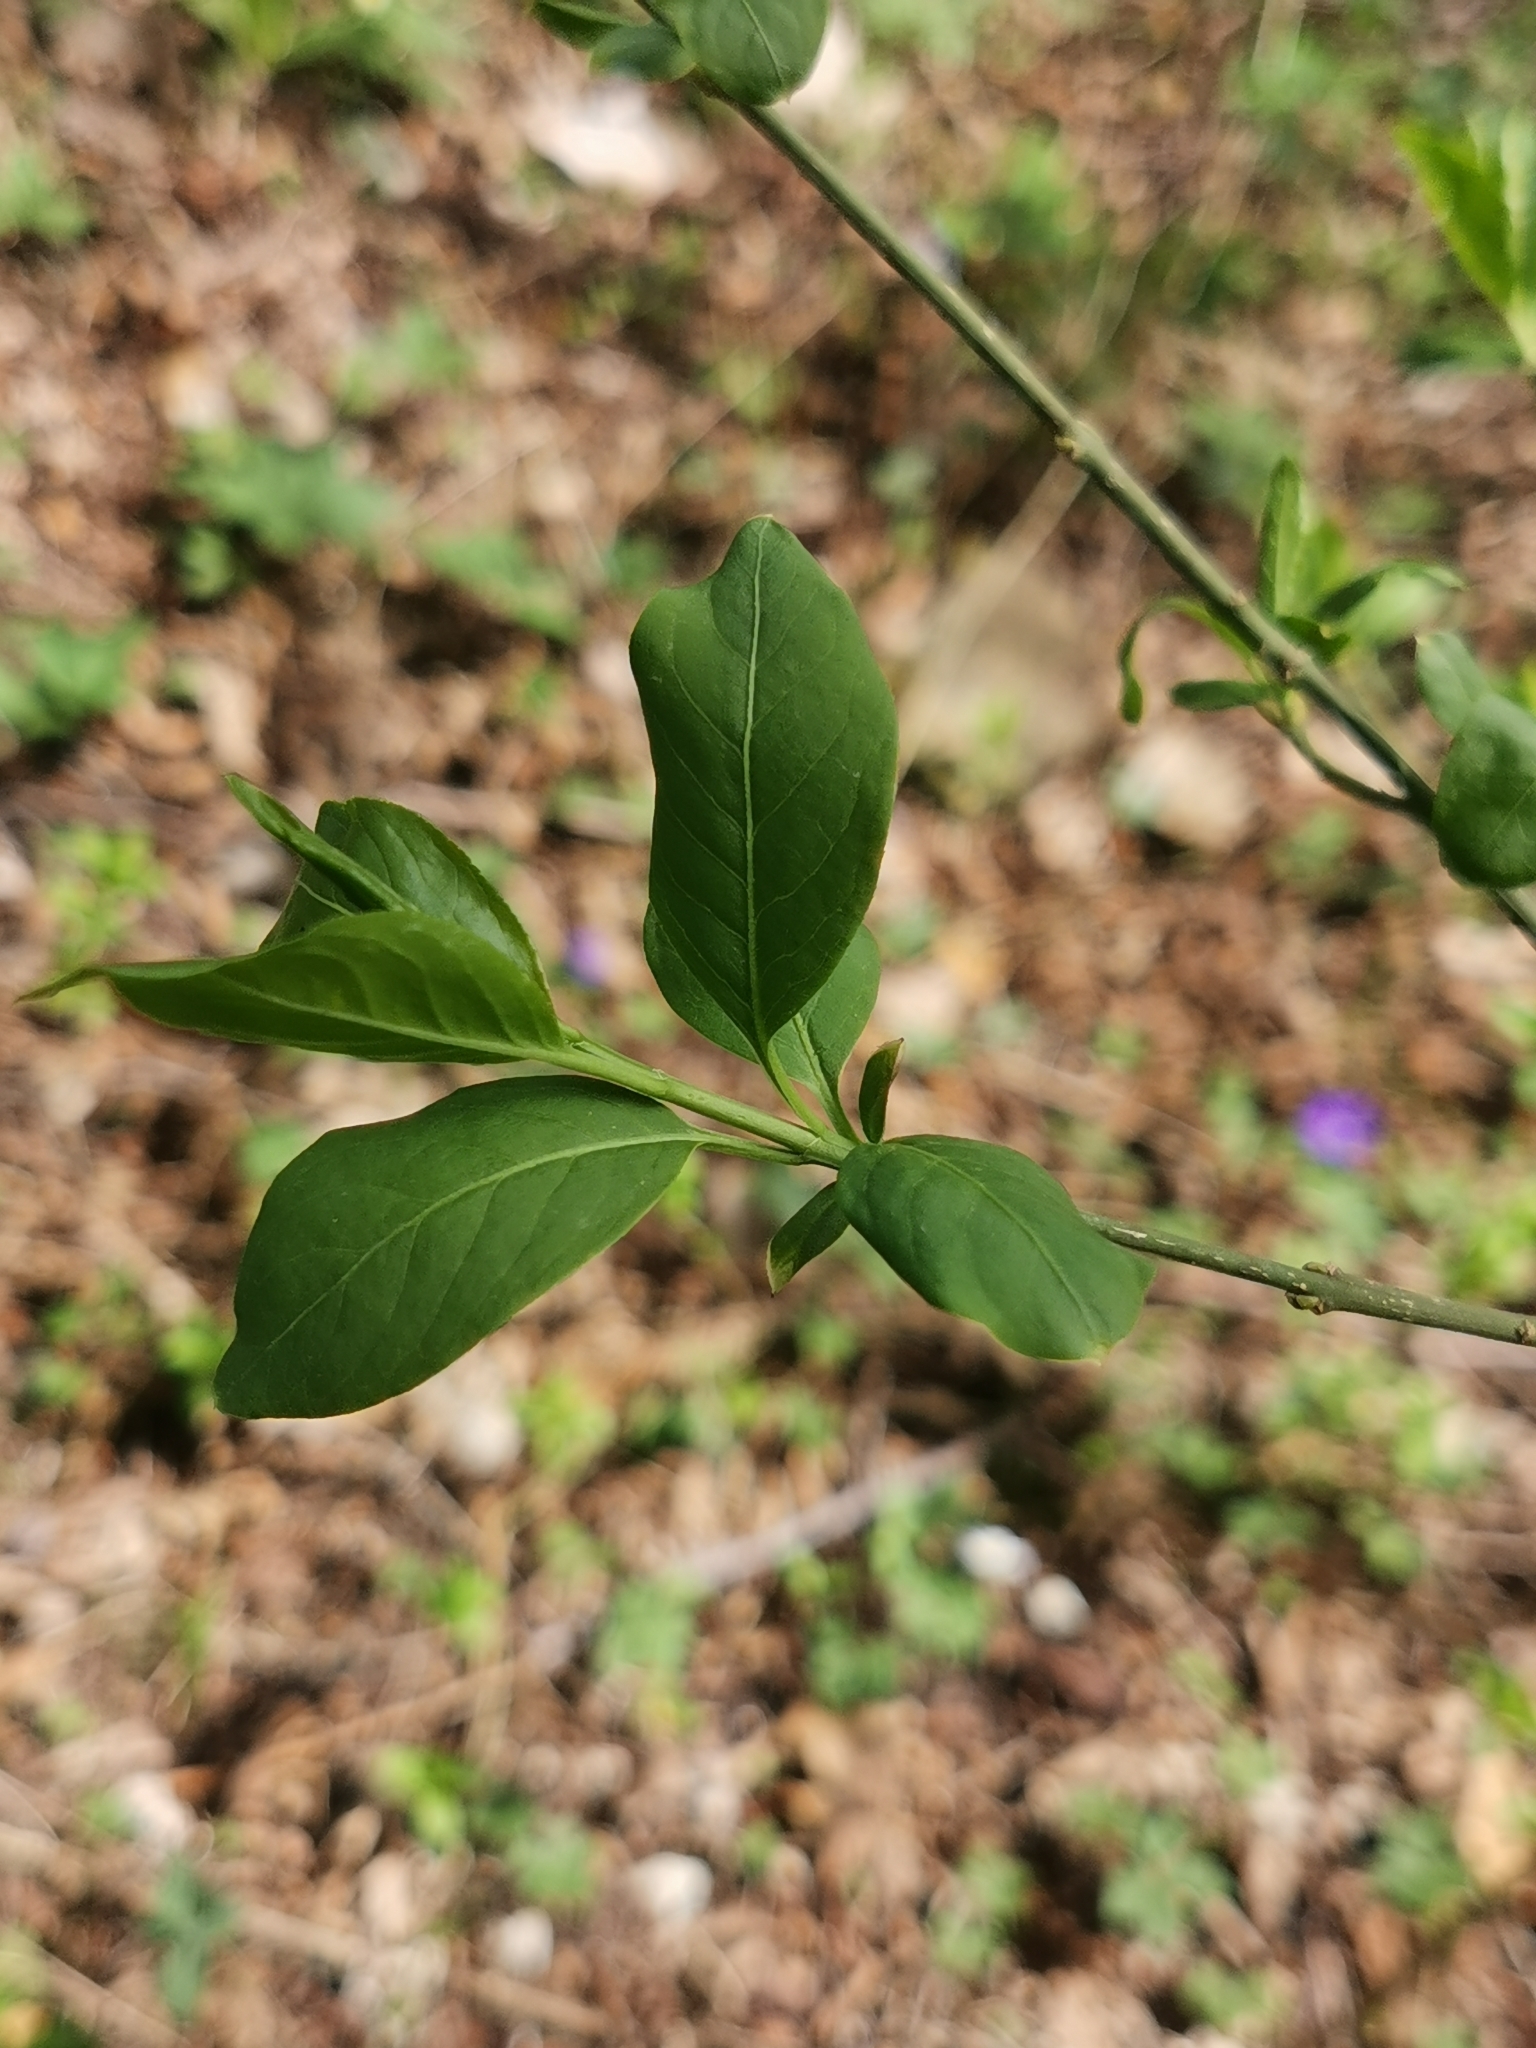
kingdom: Plantae
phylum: Tracheophyta
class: Magnoliopsida
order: Celastrales
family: Celastraceae
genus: Euonymus
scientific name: Euonymus europaeus
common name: Spindle
